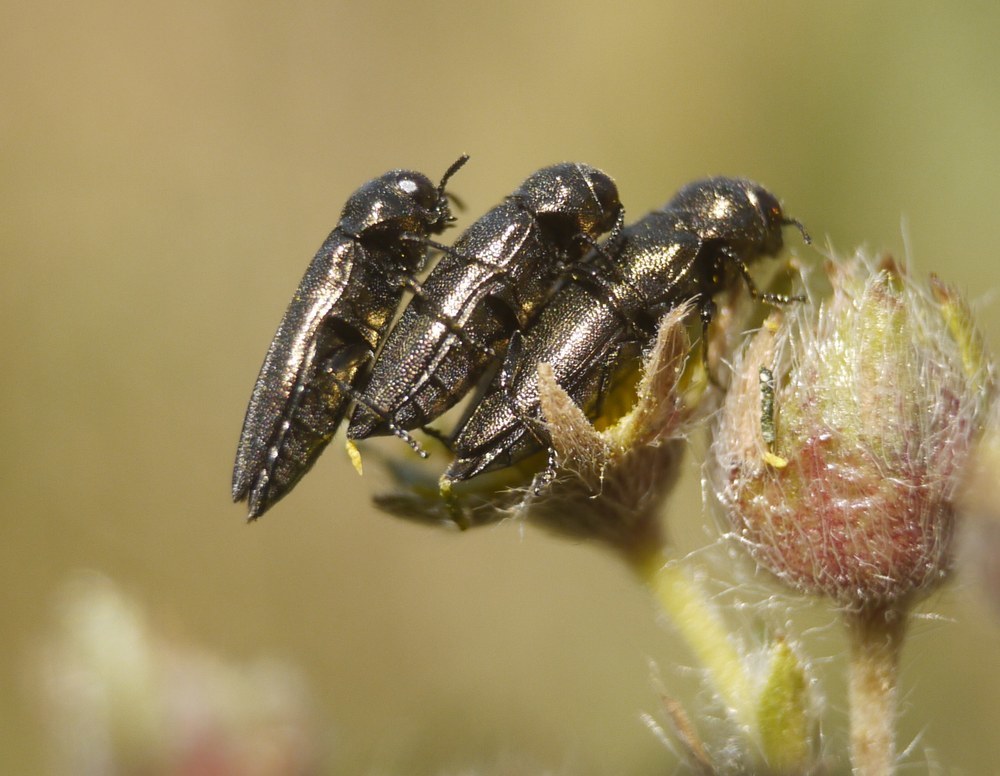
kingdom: Animalia
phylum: Arthropoda
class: Insecta
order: Coleoptera
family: Buprestidae
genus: Coraebus
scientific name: Coraebus elatus
